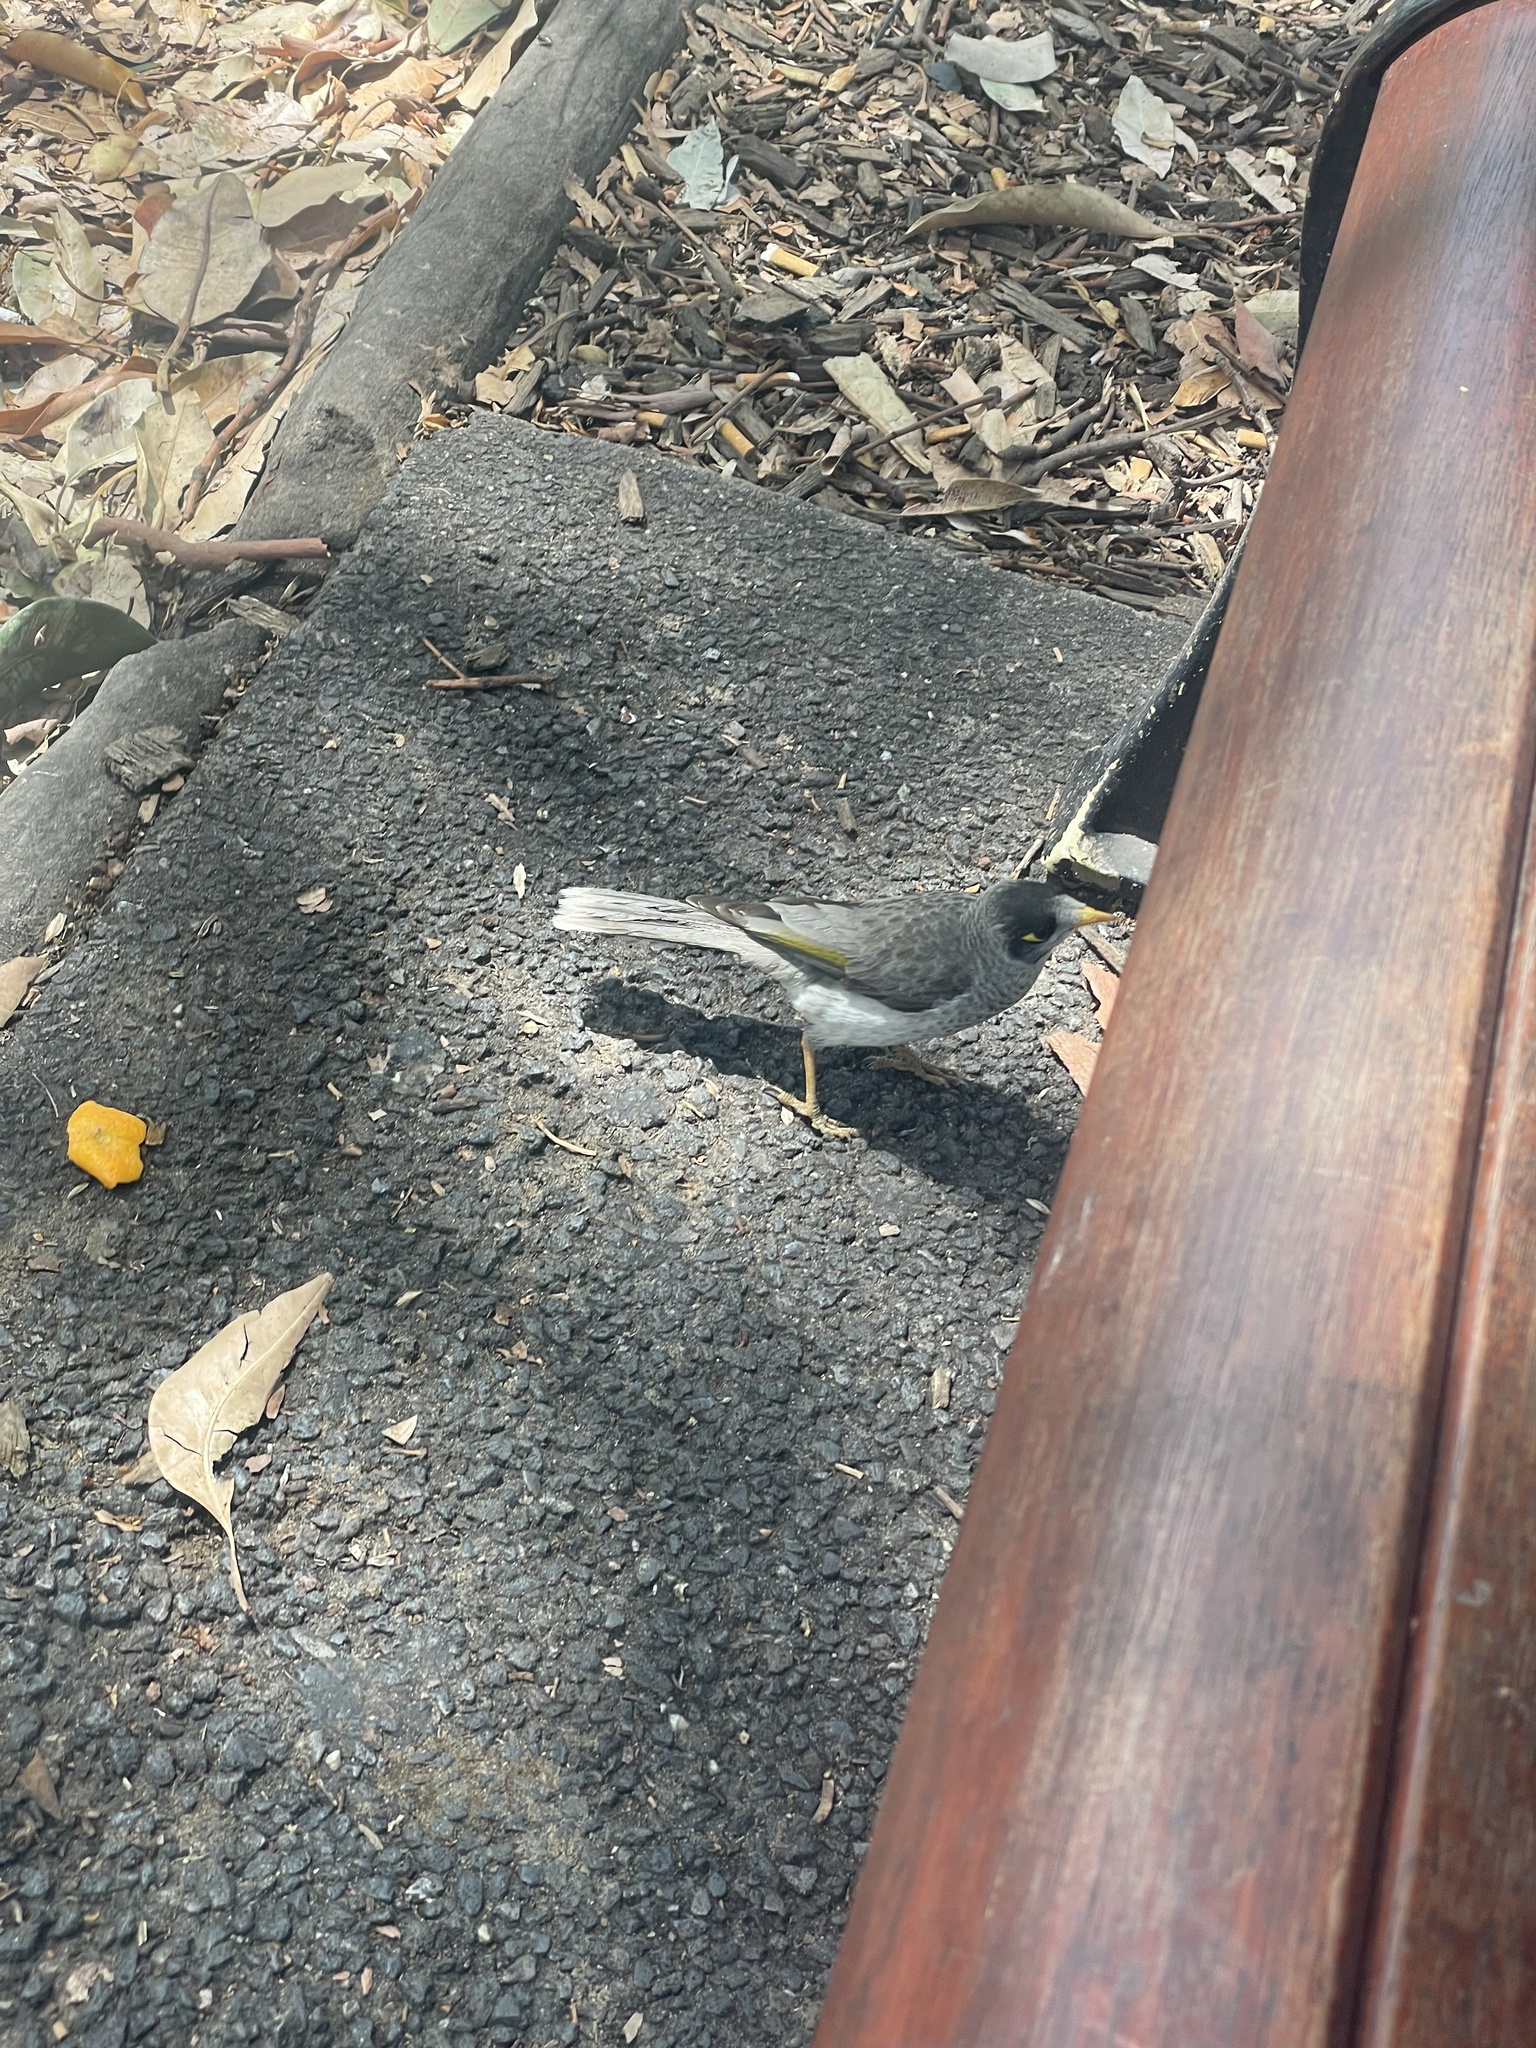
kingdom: Animalia
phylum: Chordata
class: Aves
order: Passeriformes
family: Meliphagidae
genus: Manorina
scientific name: Manorina melanocephala
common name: Noisy miner
